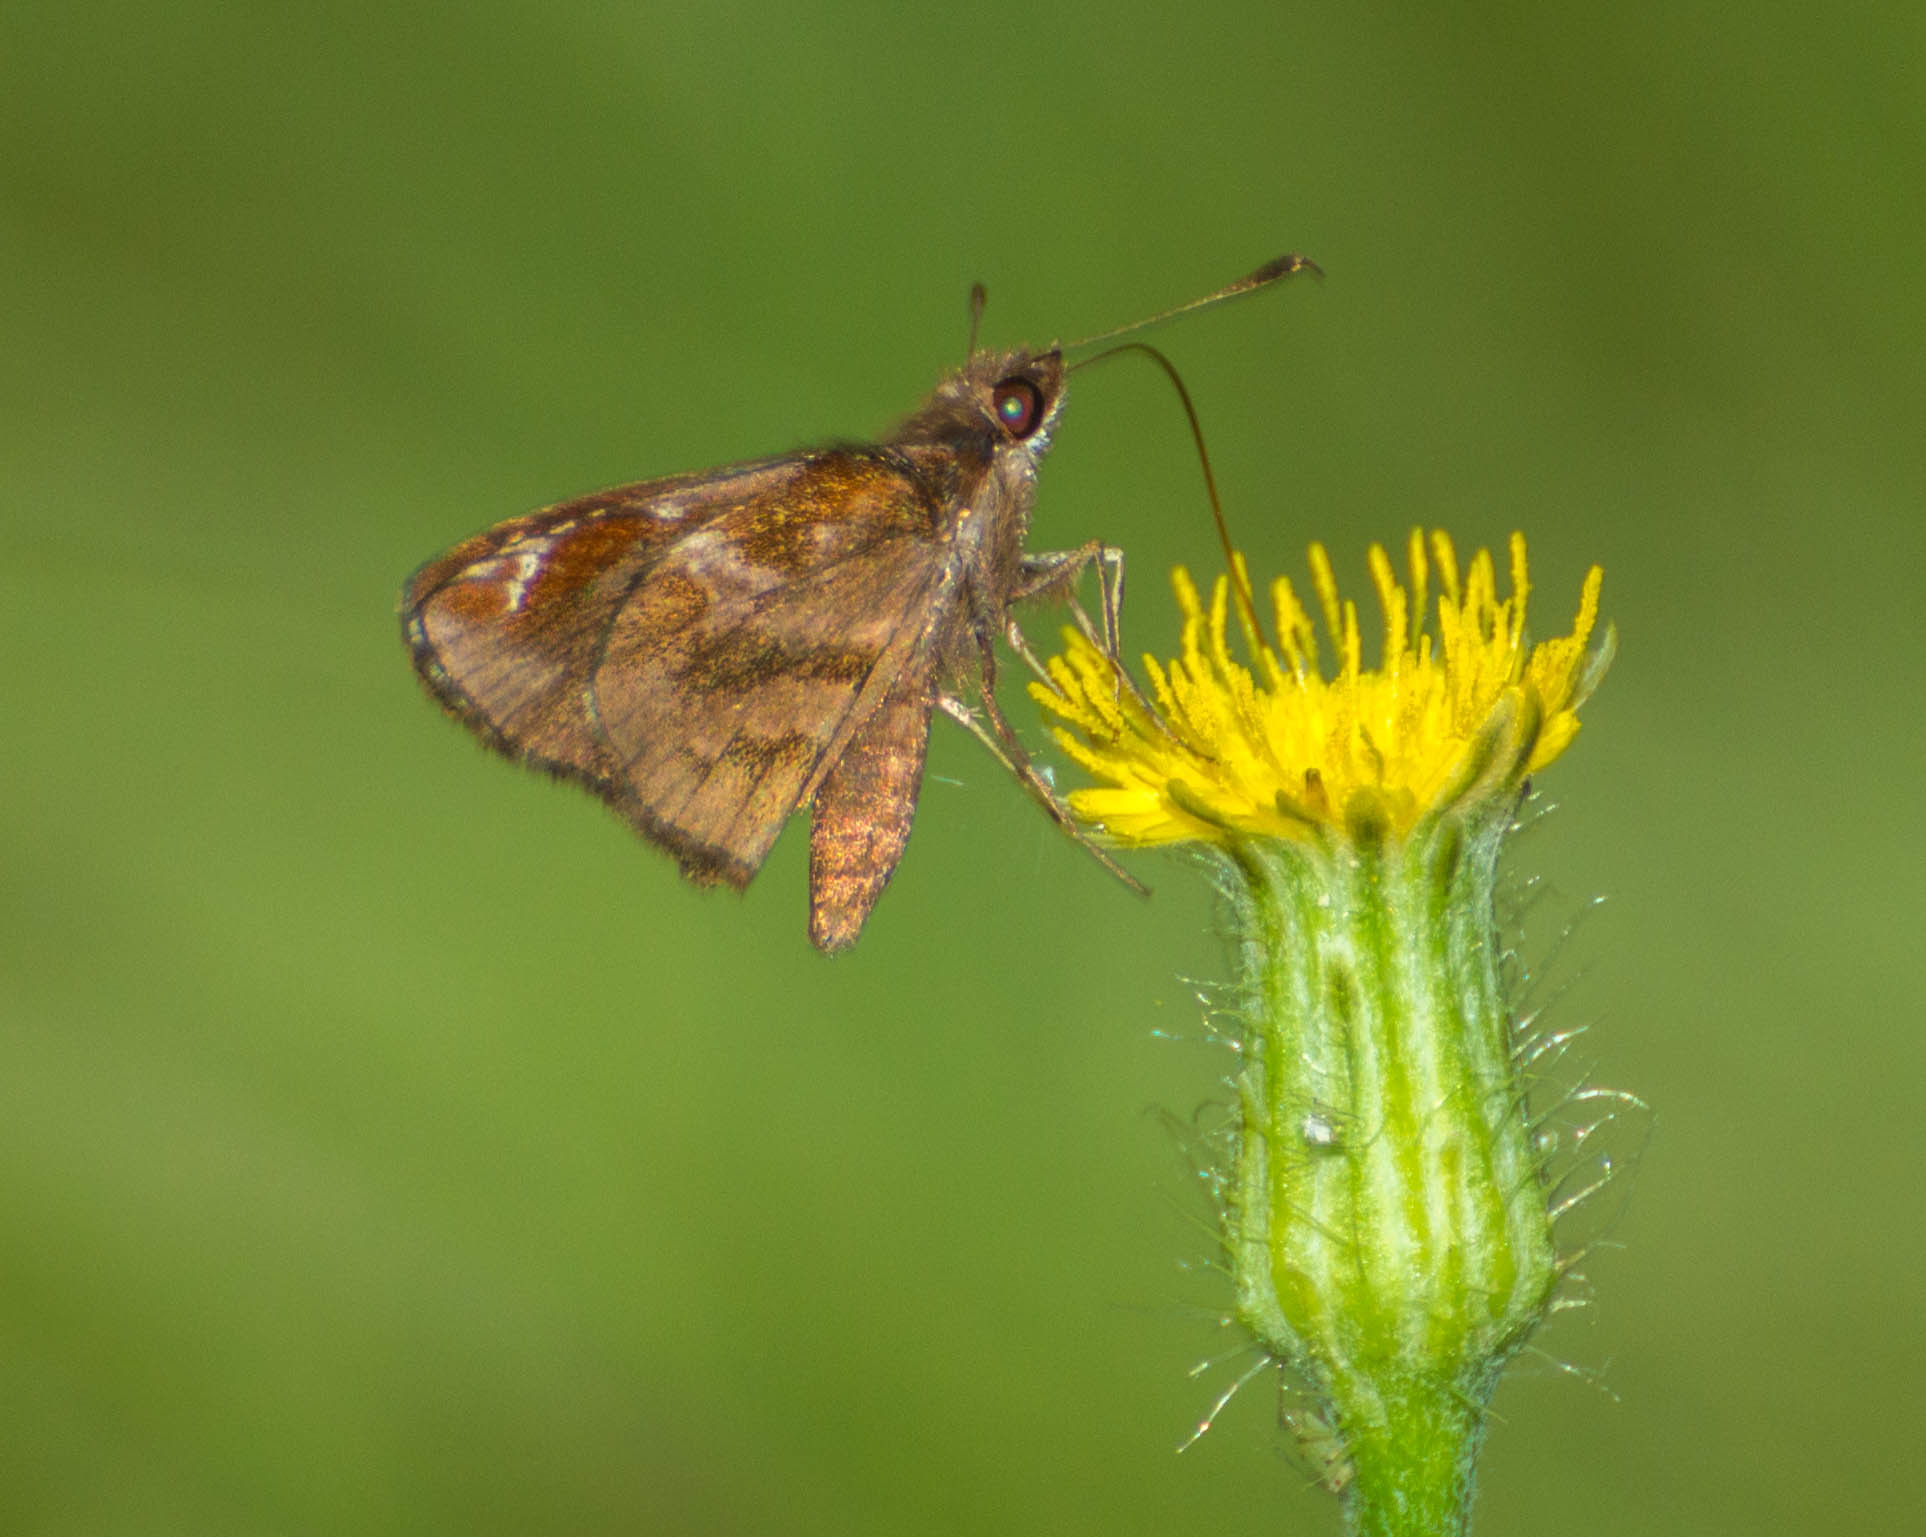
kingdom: Animalia
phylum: Arthropoda
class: Insecta
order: Lepidoptera
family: Hesperiidae
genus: Monca
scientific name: Monca telata
